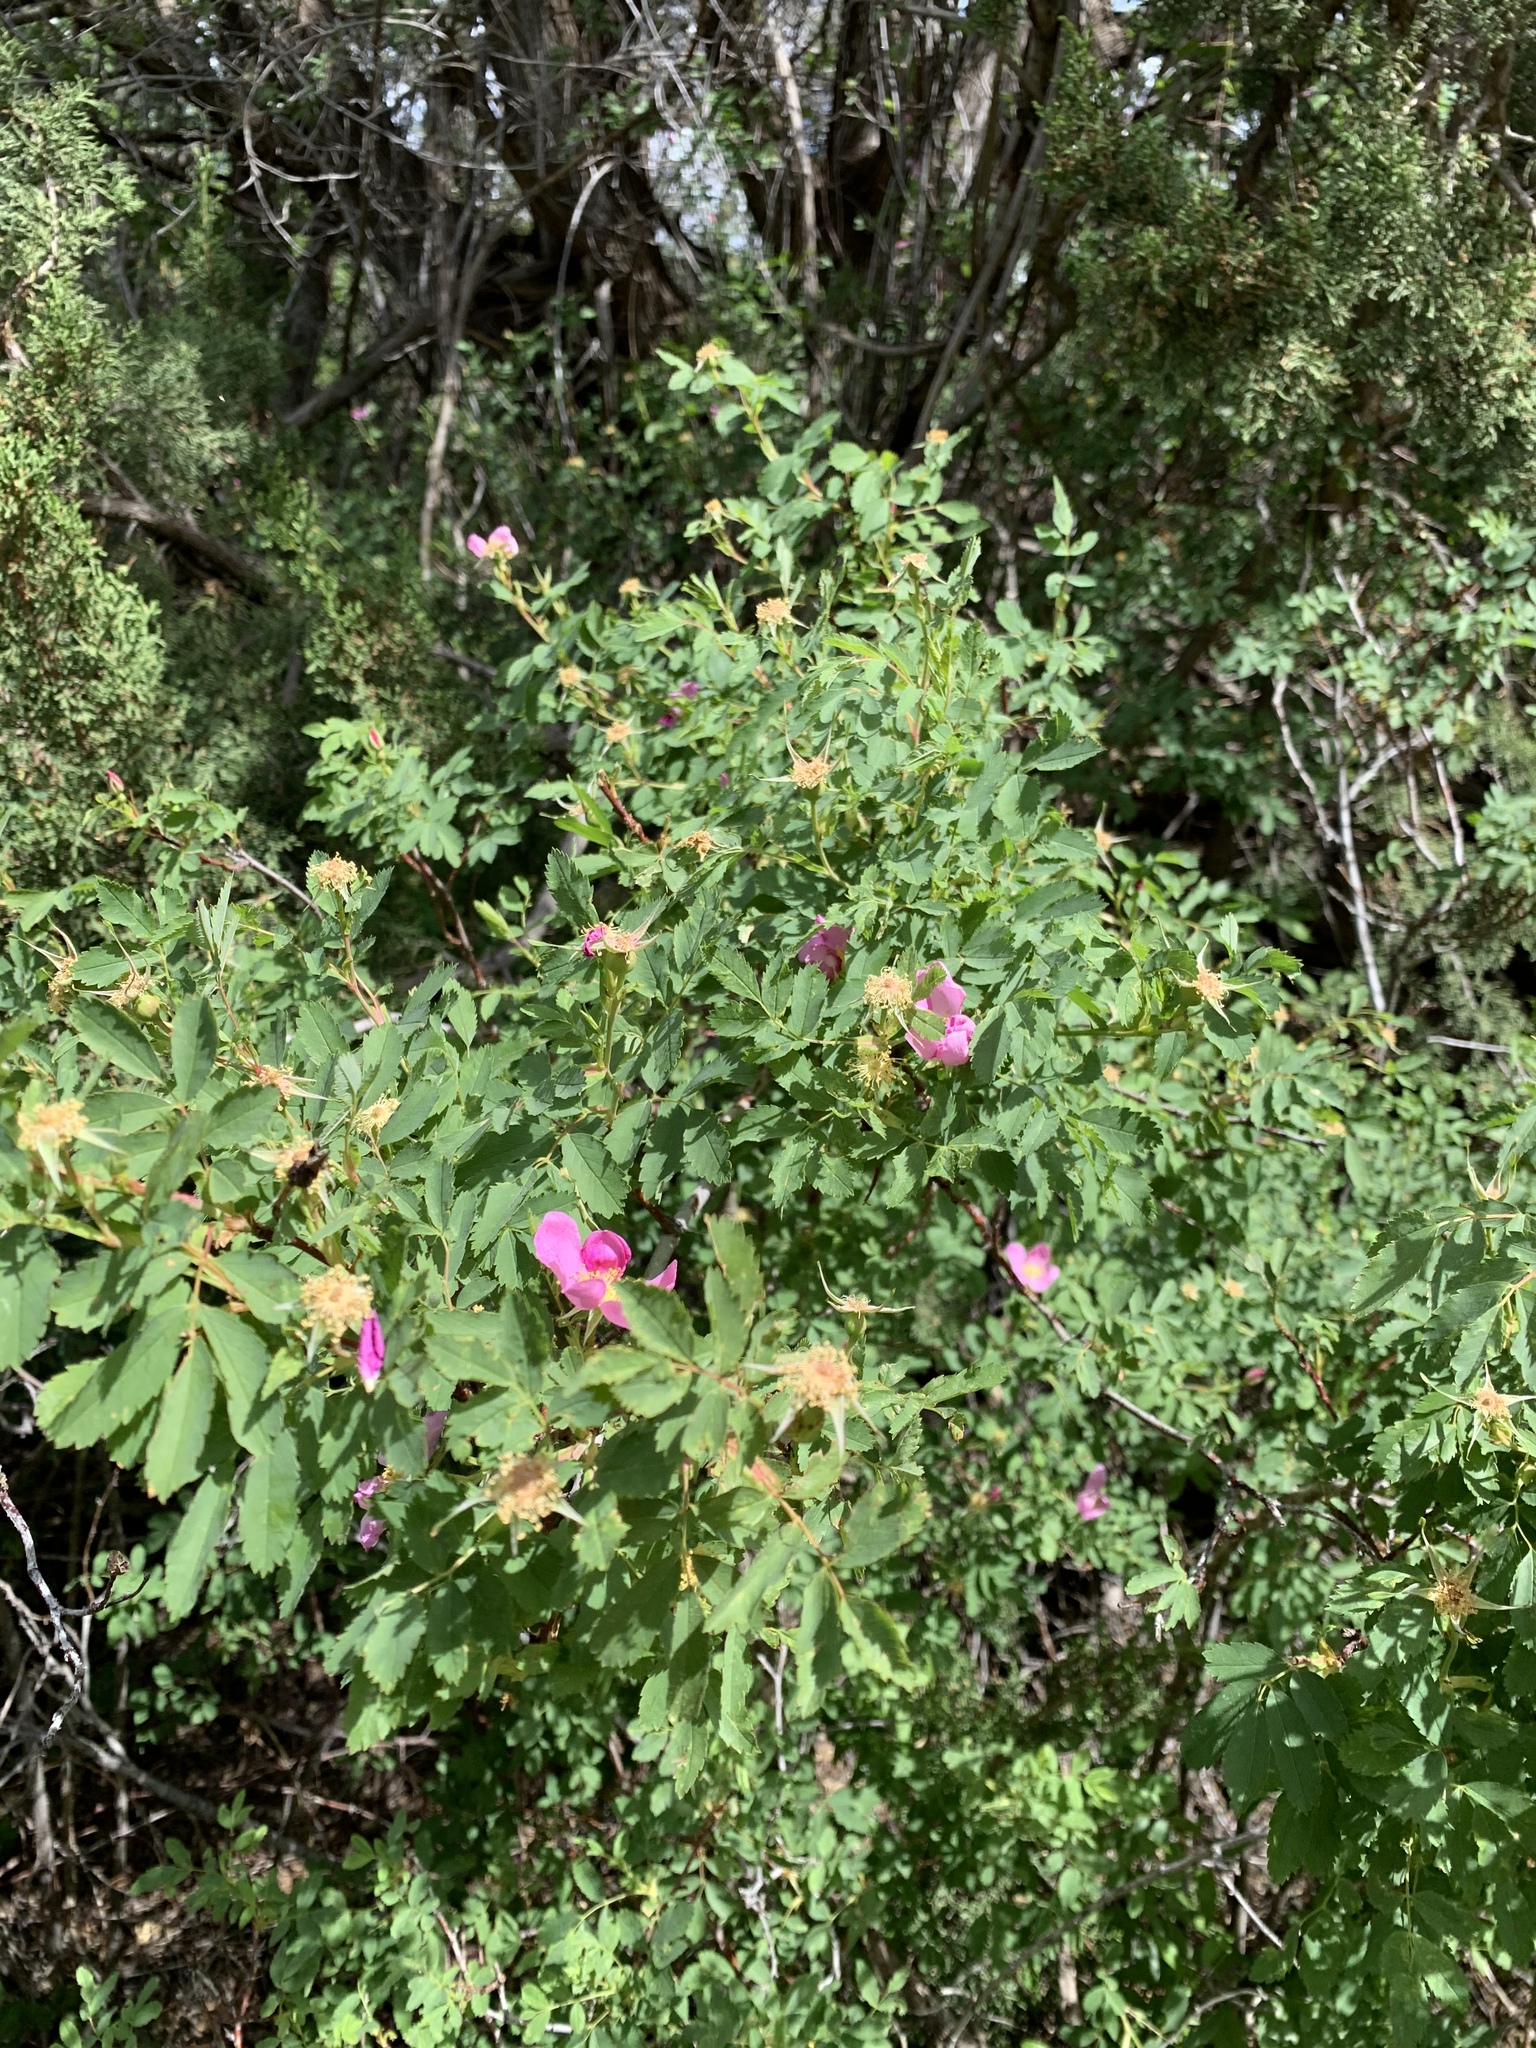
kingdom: Plantae
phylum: Tracheophyta
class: Magnoliopsida
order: Rosales
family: Rosaceae
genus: Rosa
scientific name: Rosa woodsii
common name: Woods's rose
